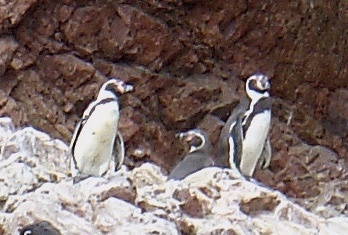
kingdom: Animalia
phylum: Chordata
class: Aves
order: Sphenisciformes
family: Spheniscidae
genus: Spheniscus
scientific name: Spheniscus humboldti
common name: Humboldt penguin
